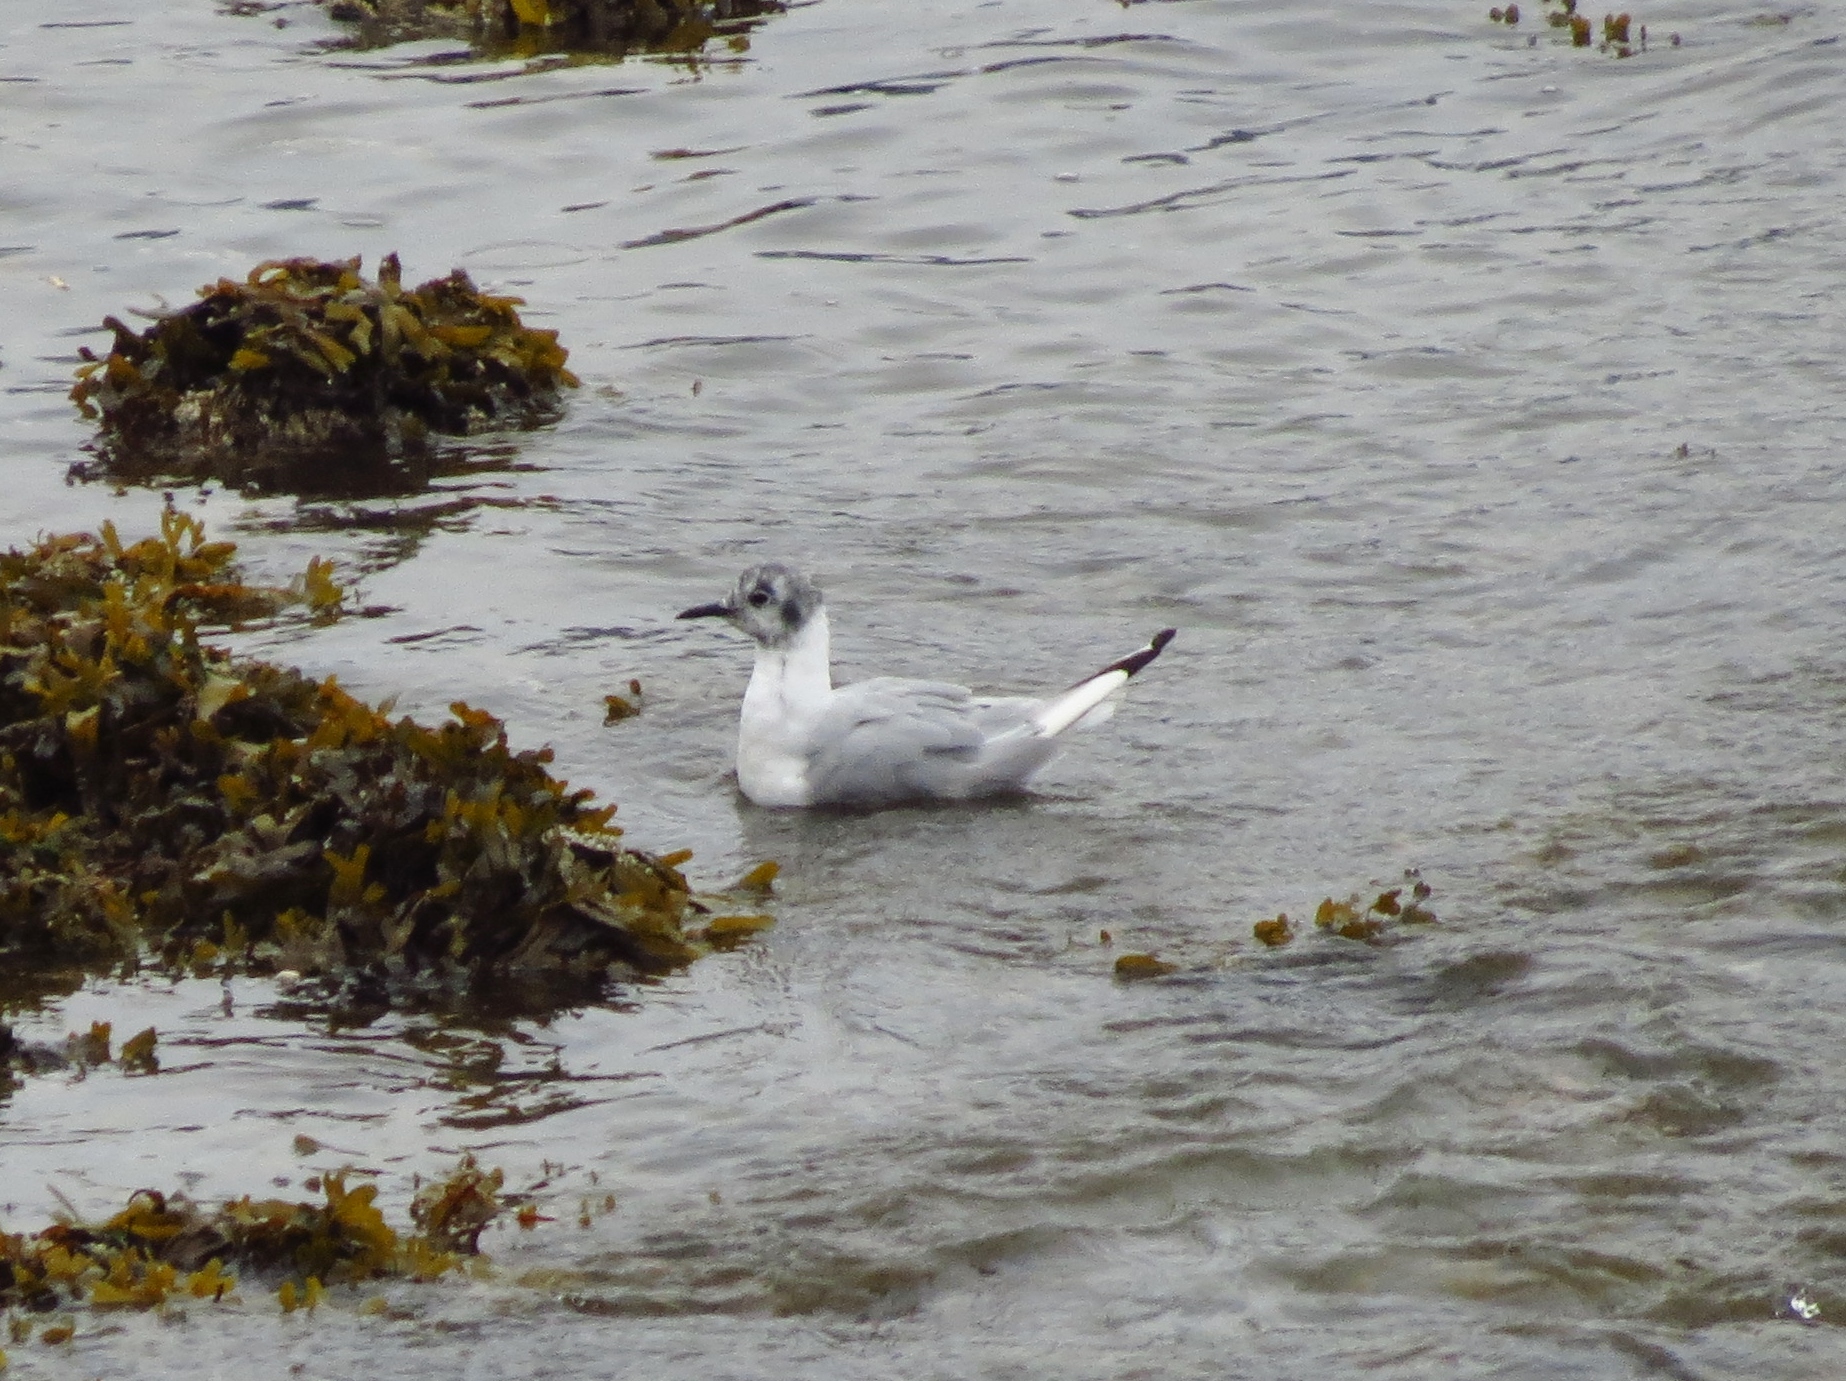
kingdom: Animalia
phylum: Chordata
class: Aves
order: Charadriiformes
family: Laridae
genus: Chroicocephalus
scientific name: Chroicocephalus philadelphia
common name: Bonaparte's gull
